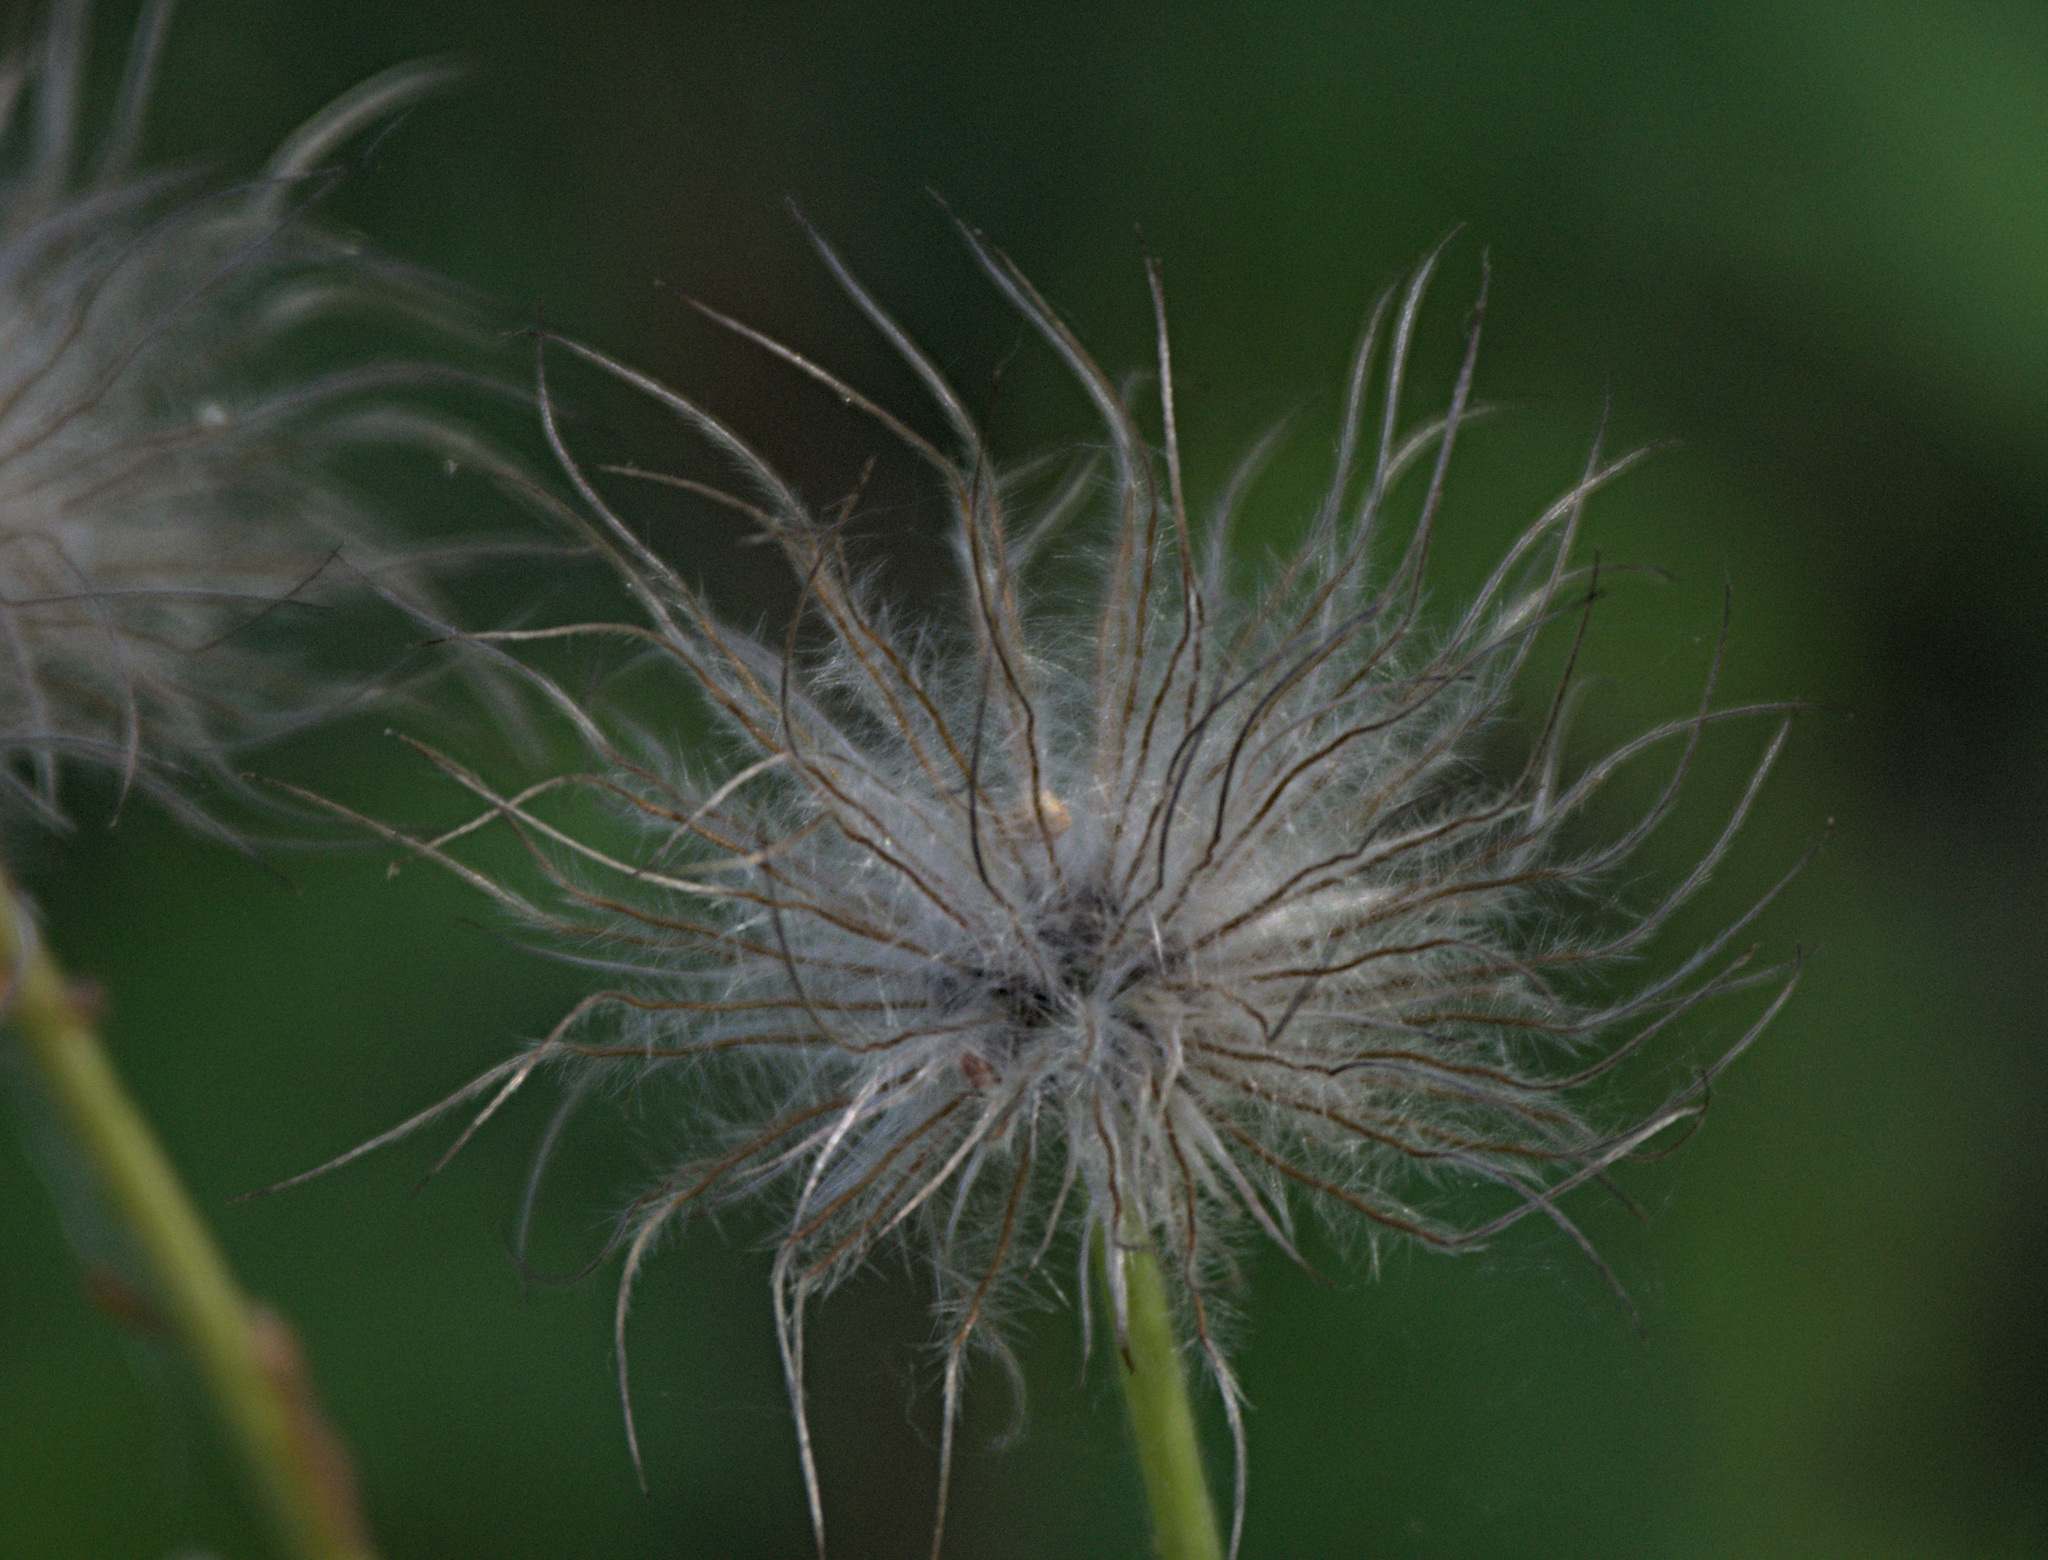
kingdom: Plantae
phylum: Tracheophyta
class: Magnoliopsida
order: Ranunculales
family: Ranunculaceae
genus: Pulsatilla
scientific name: Pulsatilla patens
